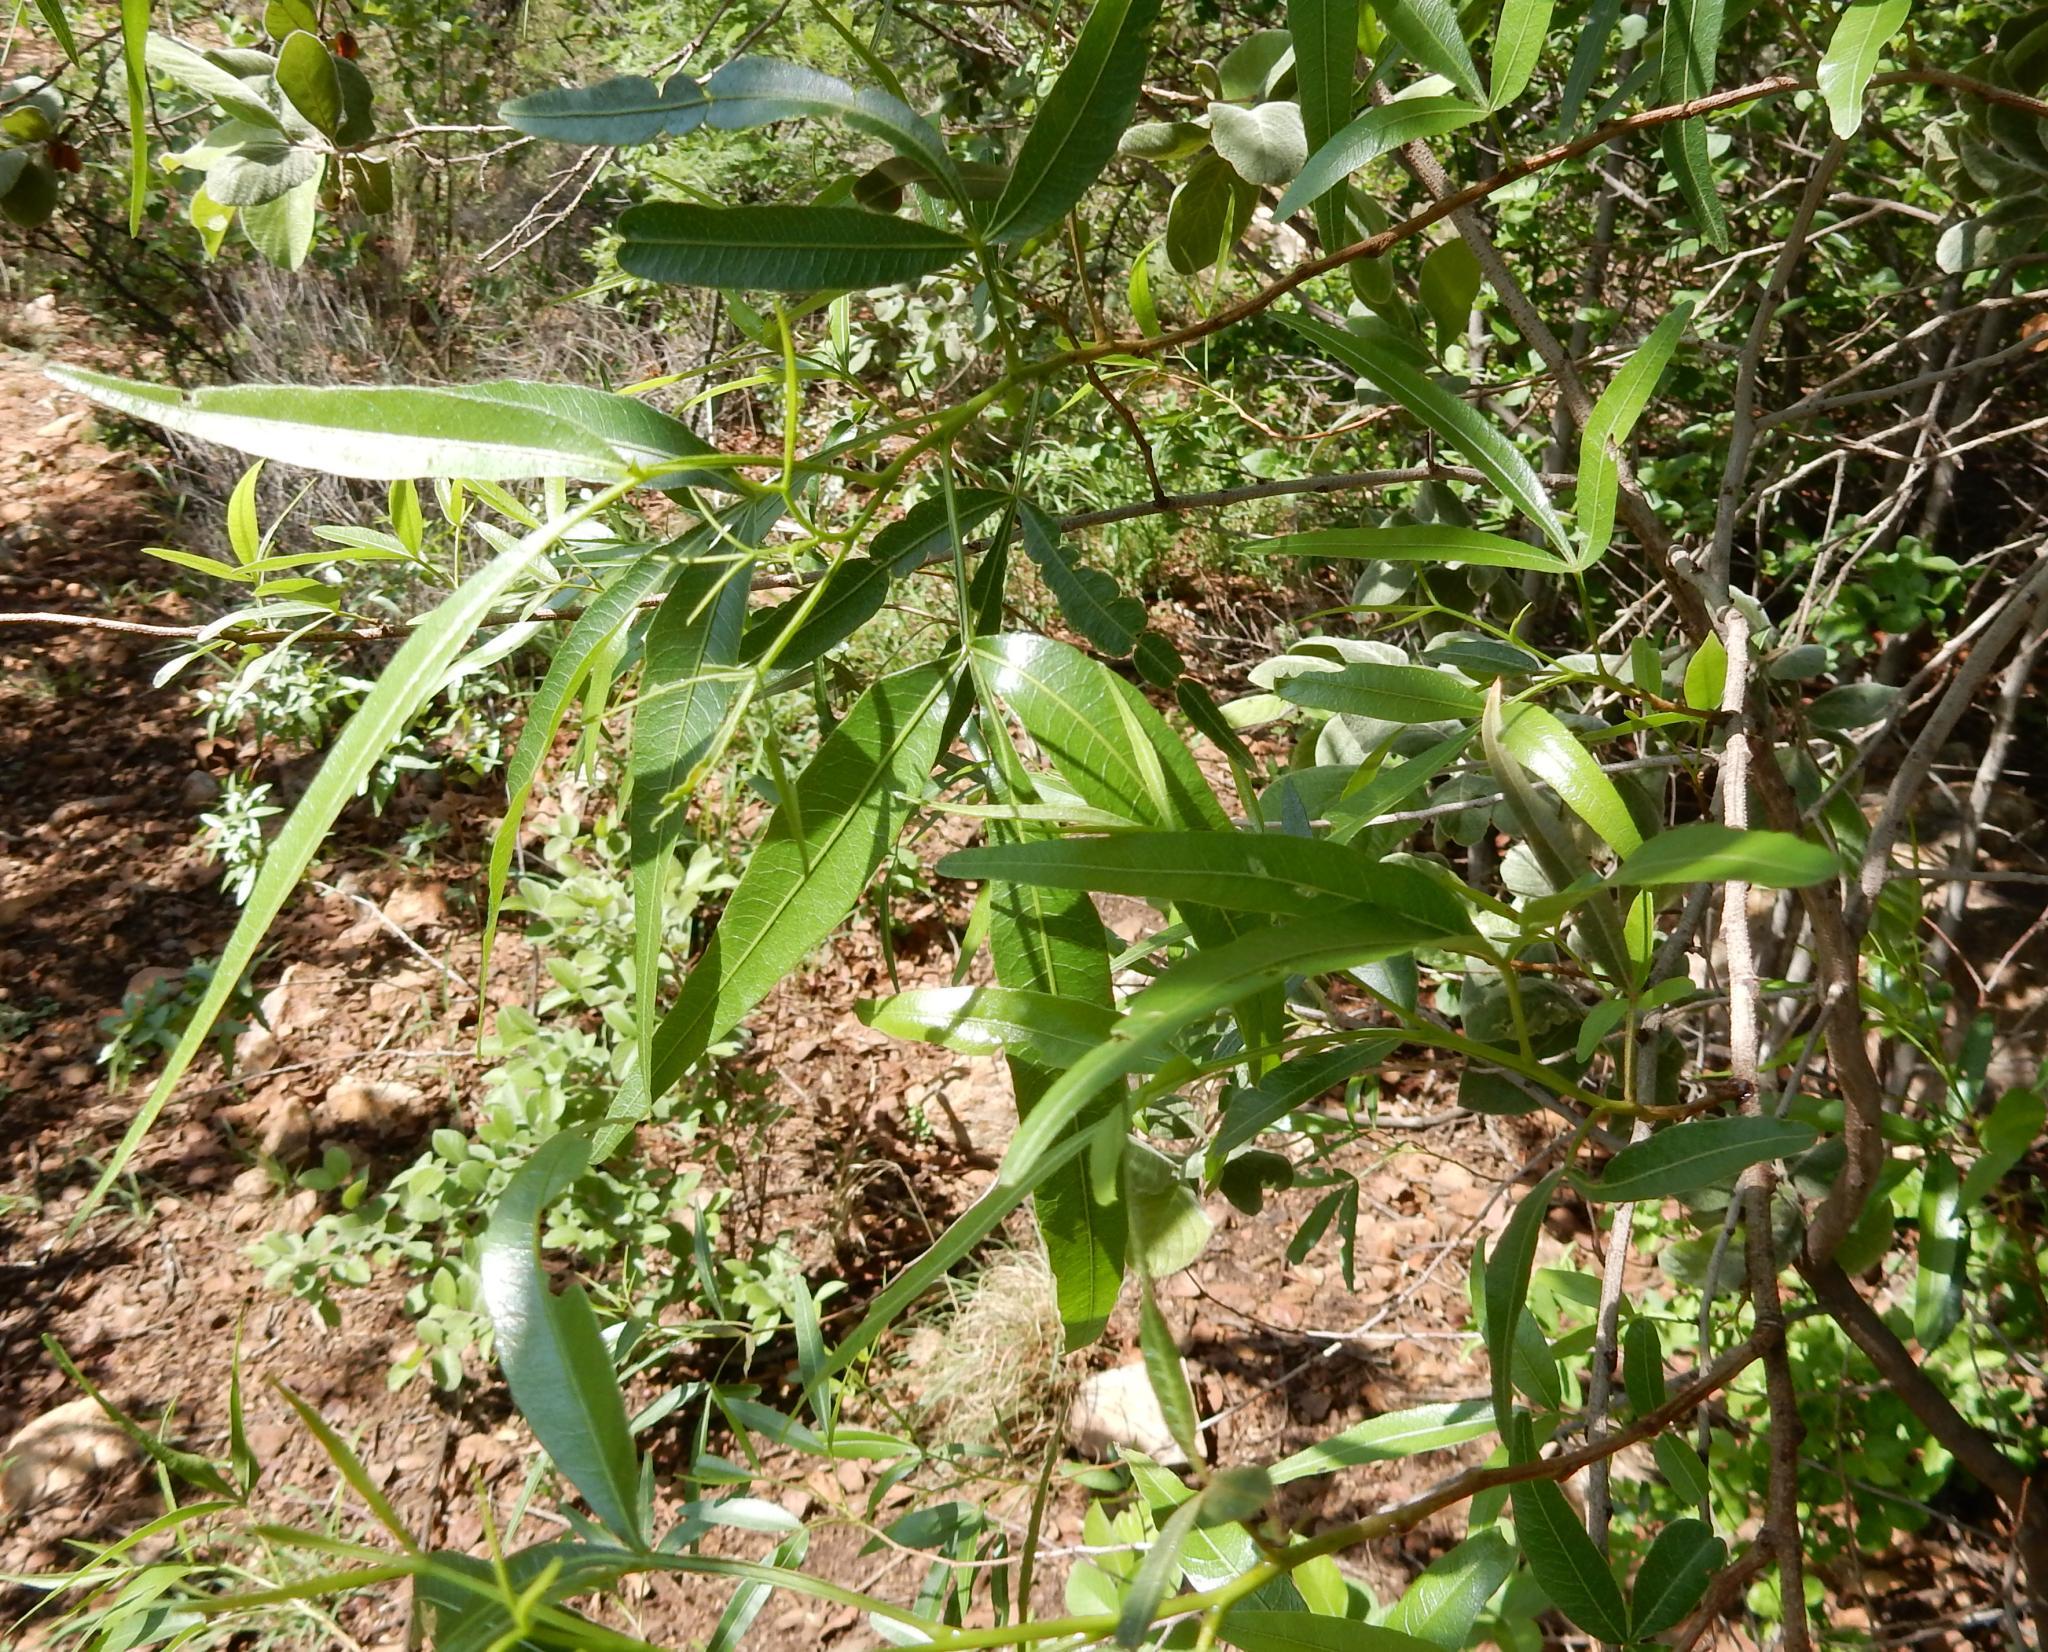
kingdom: Plantae
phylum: Tracheophyta
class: Magnoliopsida
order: Sapindales
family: Anacardiaceae
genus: Searsia
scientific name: Searsia lancea
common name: Cashew
